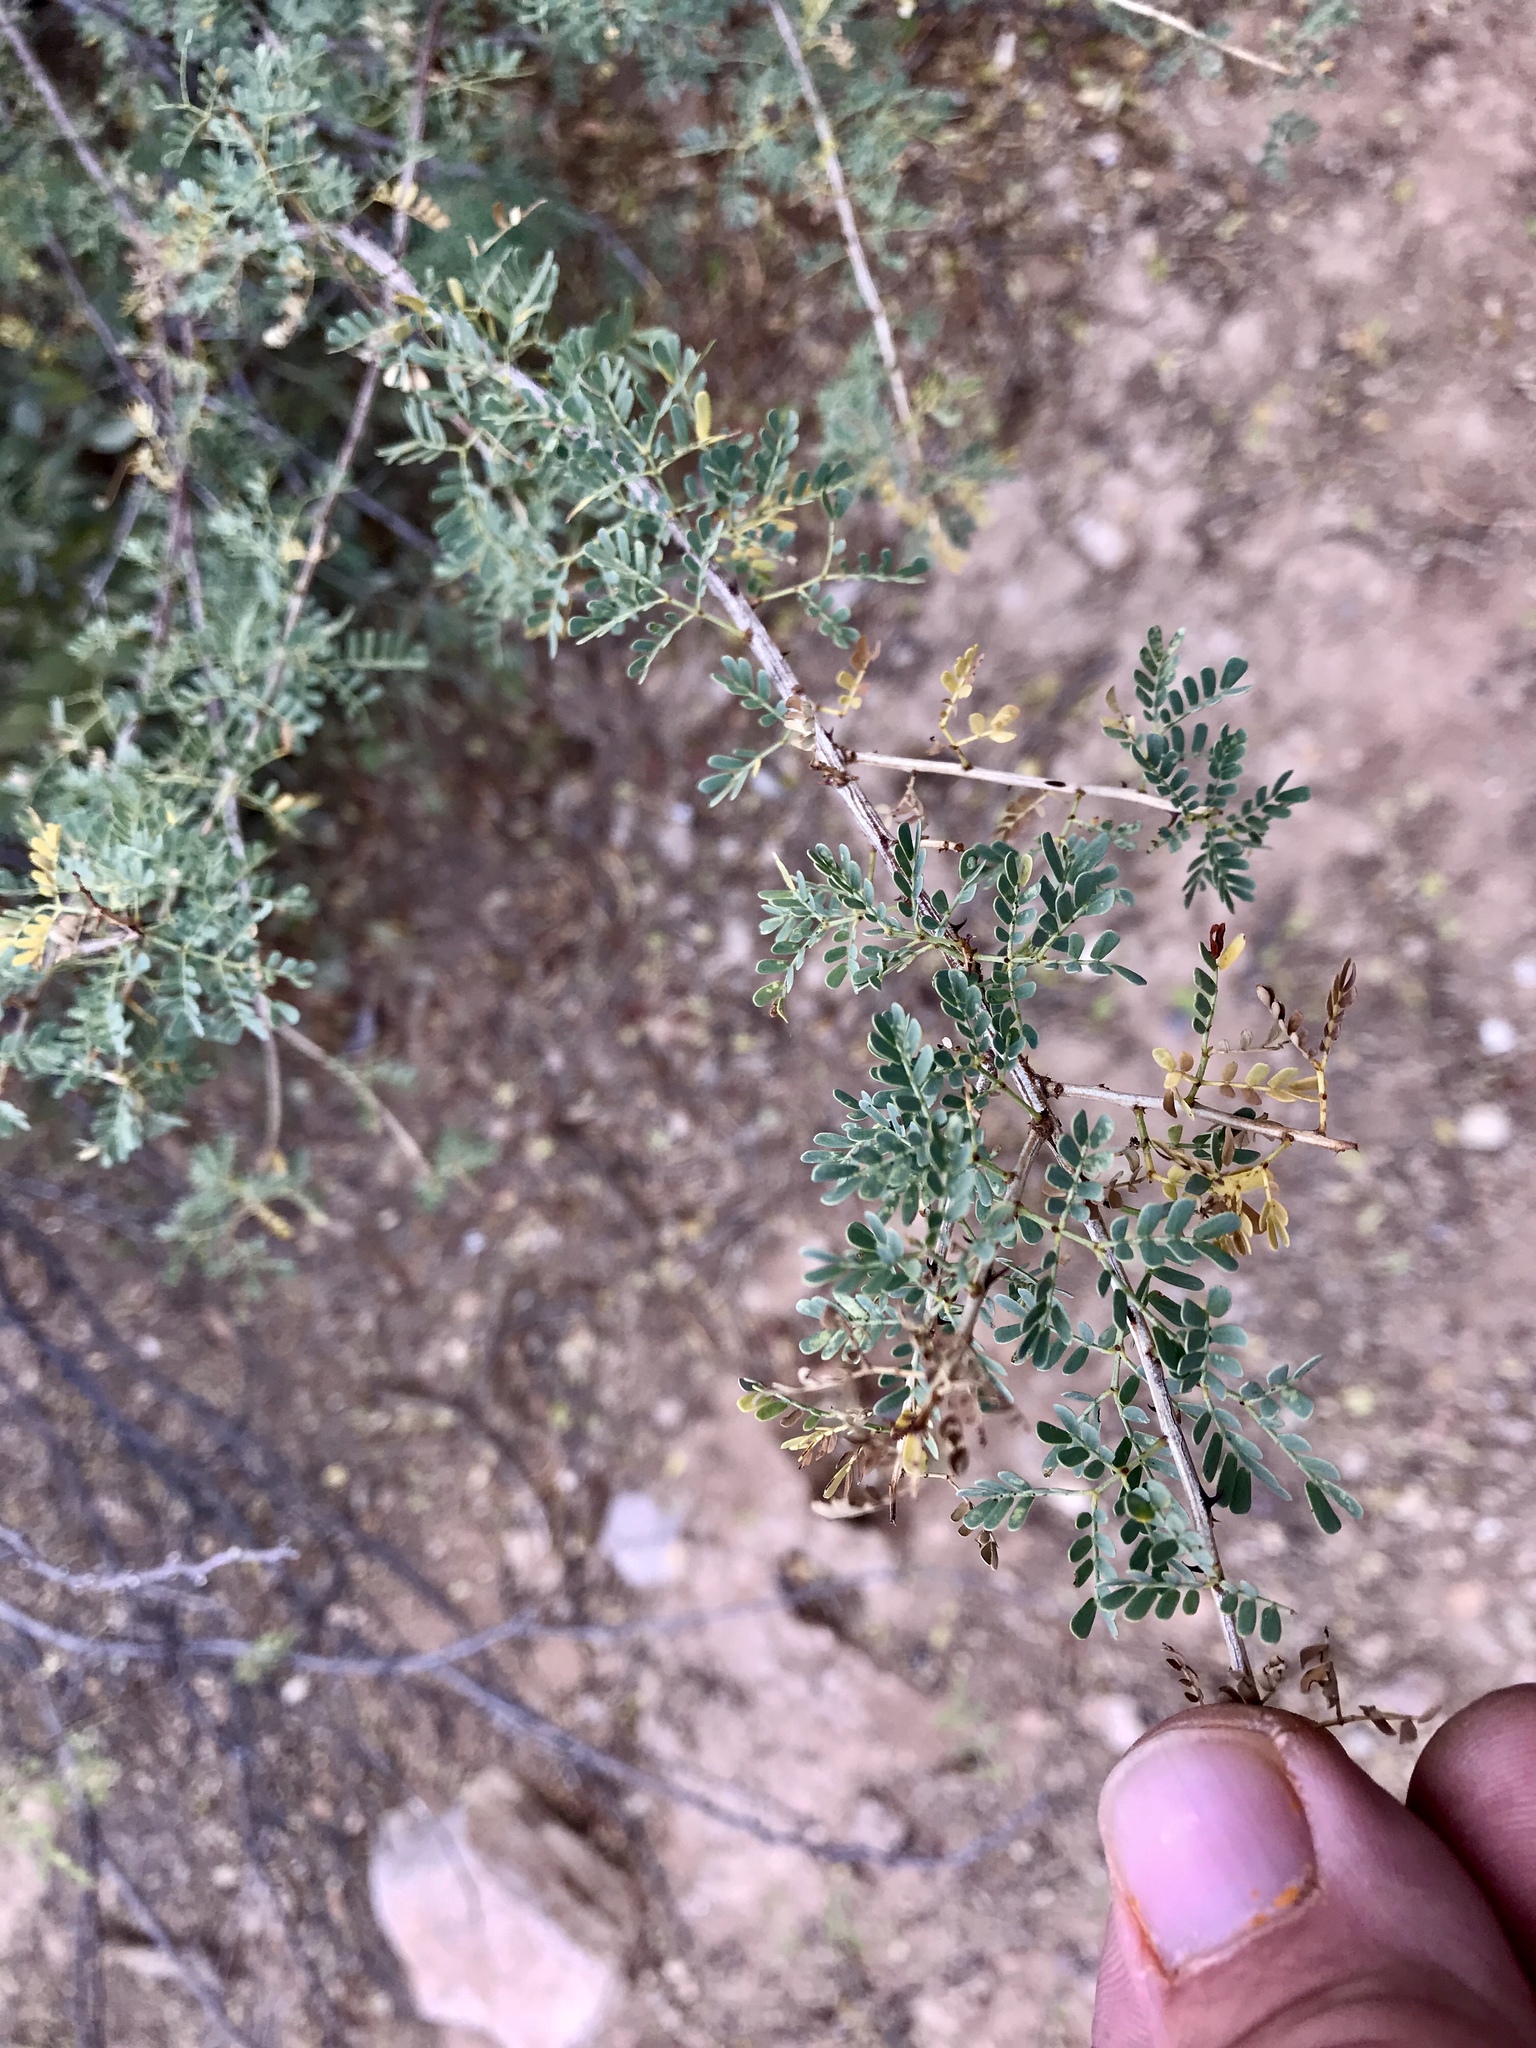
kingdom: Plantae
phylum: Tracheophyta
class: Magnoliopsida
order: Fabales
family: Fabaceae
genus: Senegalia
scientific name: Senegalia greggii
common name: Texas-mimosa
